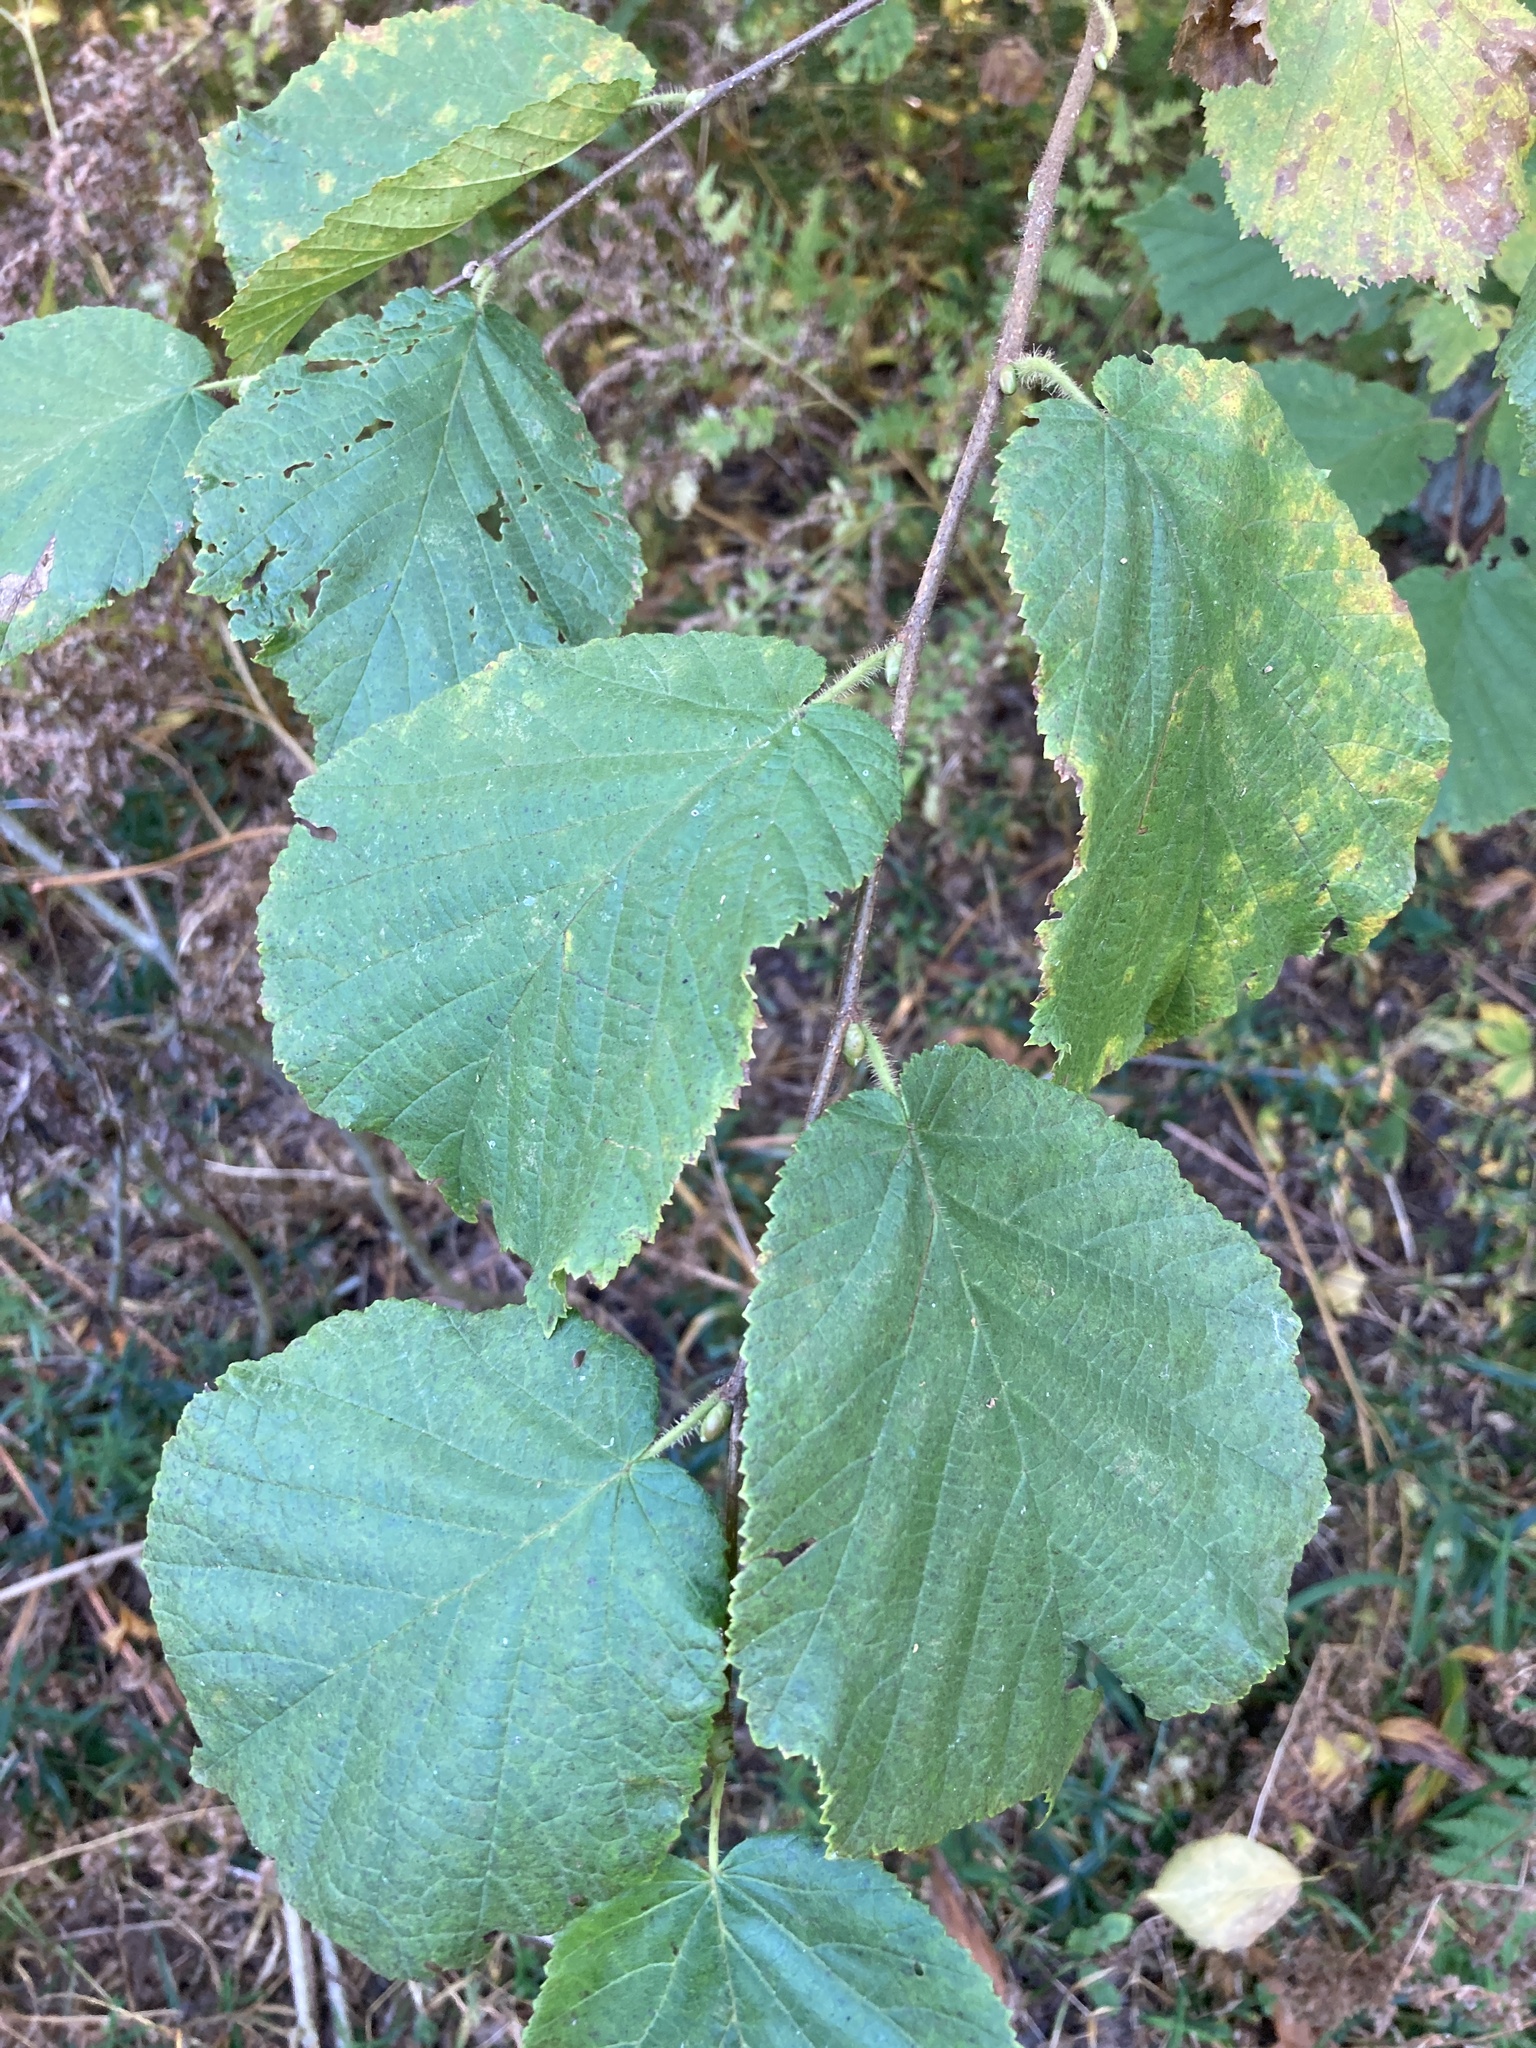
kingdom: Plantae
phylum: Tracheophyta
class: Magnoliopsida
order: Fagales
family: Betulaceae
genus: Corylus
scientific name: Corylus avellana
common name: European hazel
